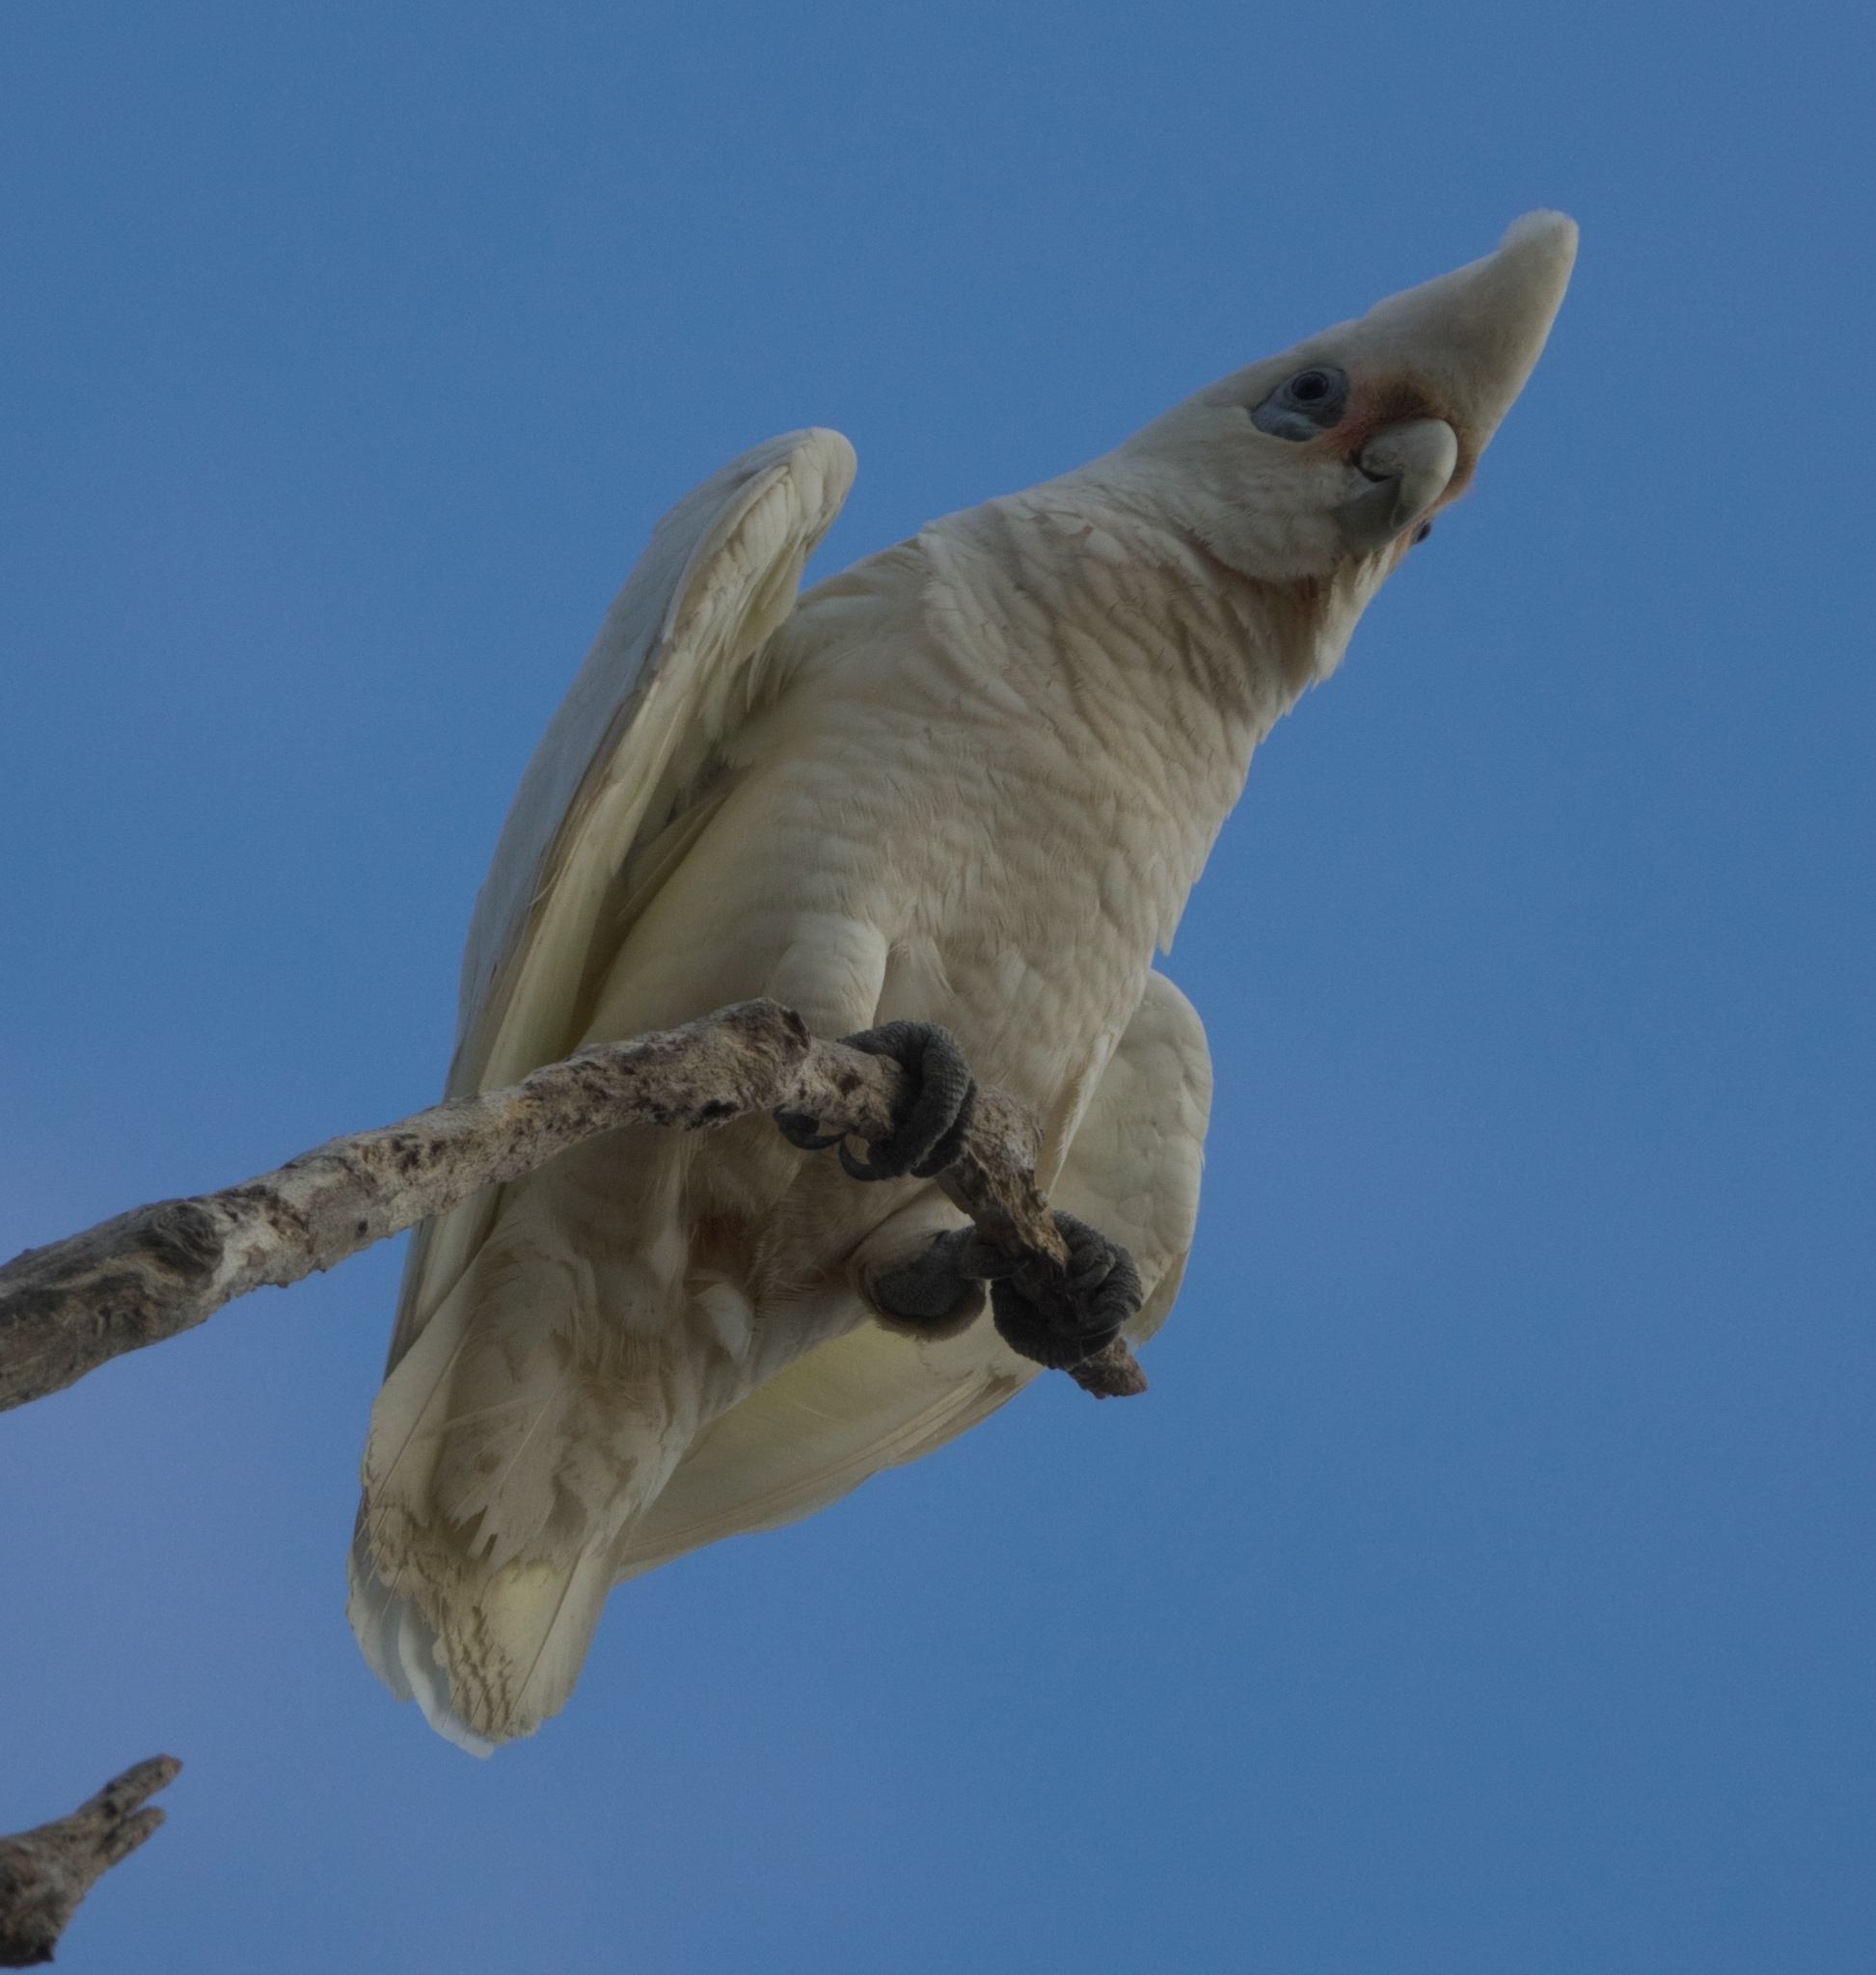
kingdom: Animalia
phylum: Chordata
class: Aves
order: Psittaciformes
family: Psittacidae
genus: Cacatua
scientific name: Cacatua sanguinea
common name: Little corella
